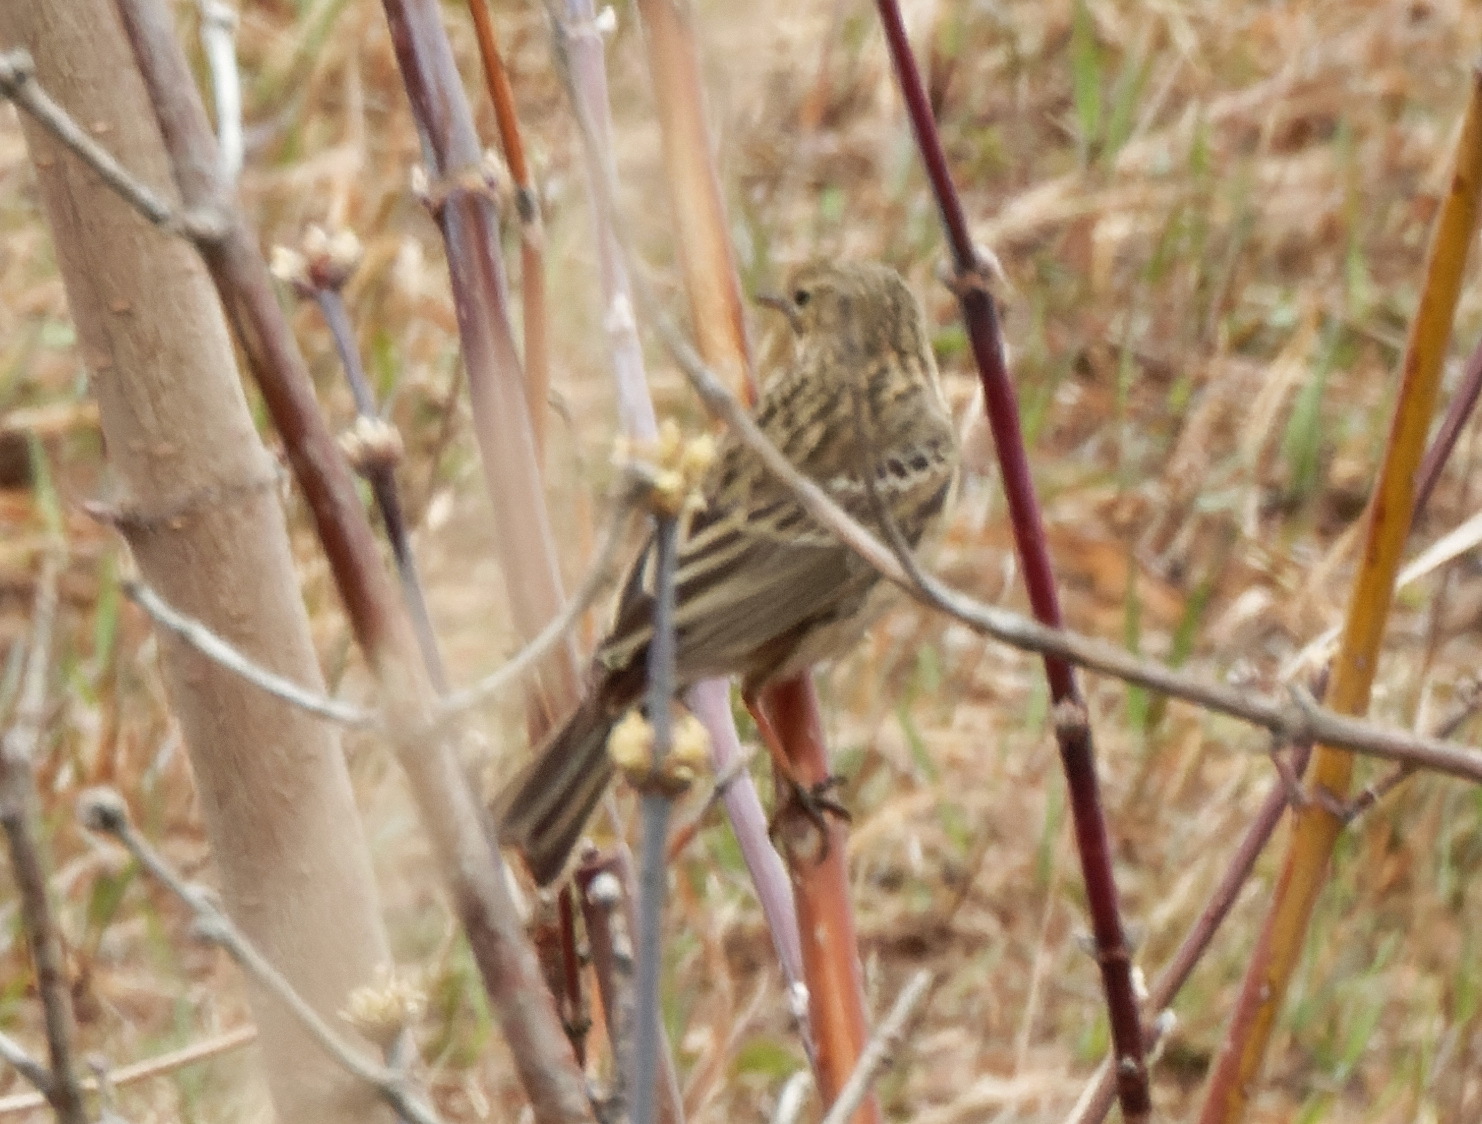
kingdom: Animalia
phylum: Chordata
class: Aves
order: Passeriformes
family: Motacillidae
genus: Anthus
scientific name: Anthus pratensis
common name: Meadow pipit
